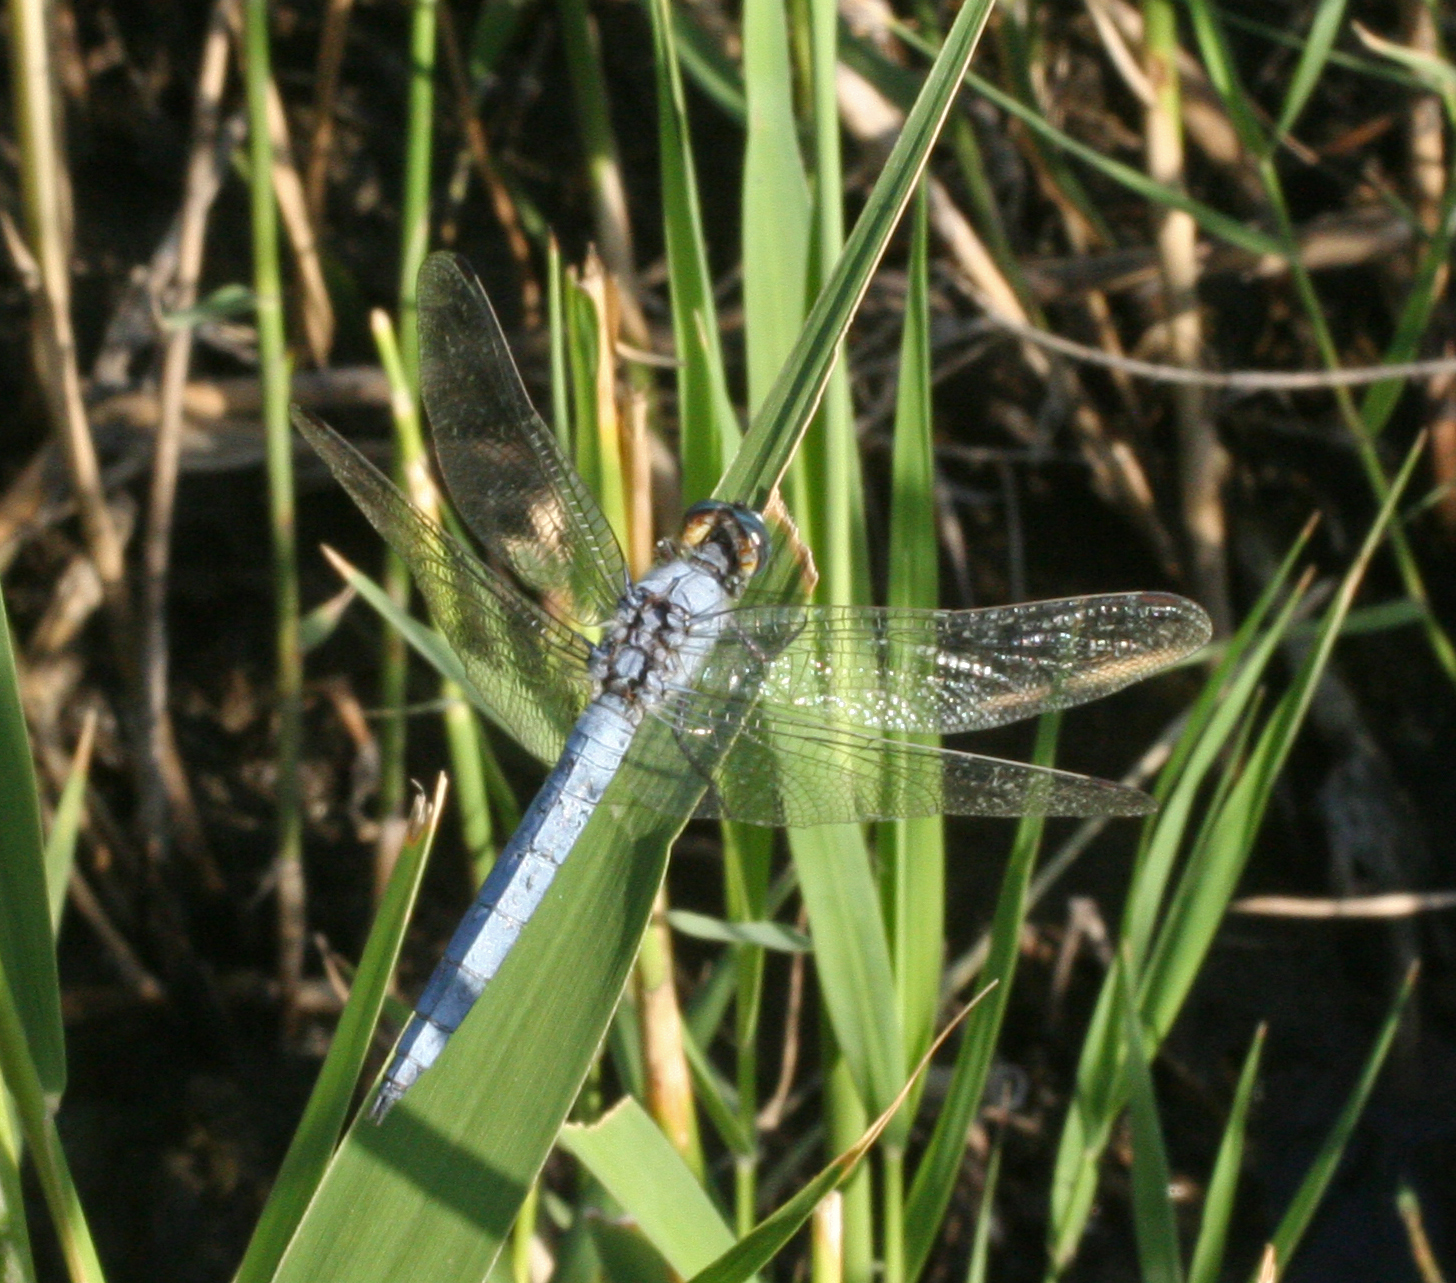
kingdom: Animalia
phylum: Arthropoda
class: Insecta
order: Odonata
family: Libellulidae
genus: Orthetrum
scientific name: Orthetrum brunneum
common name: Southern skimmer
